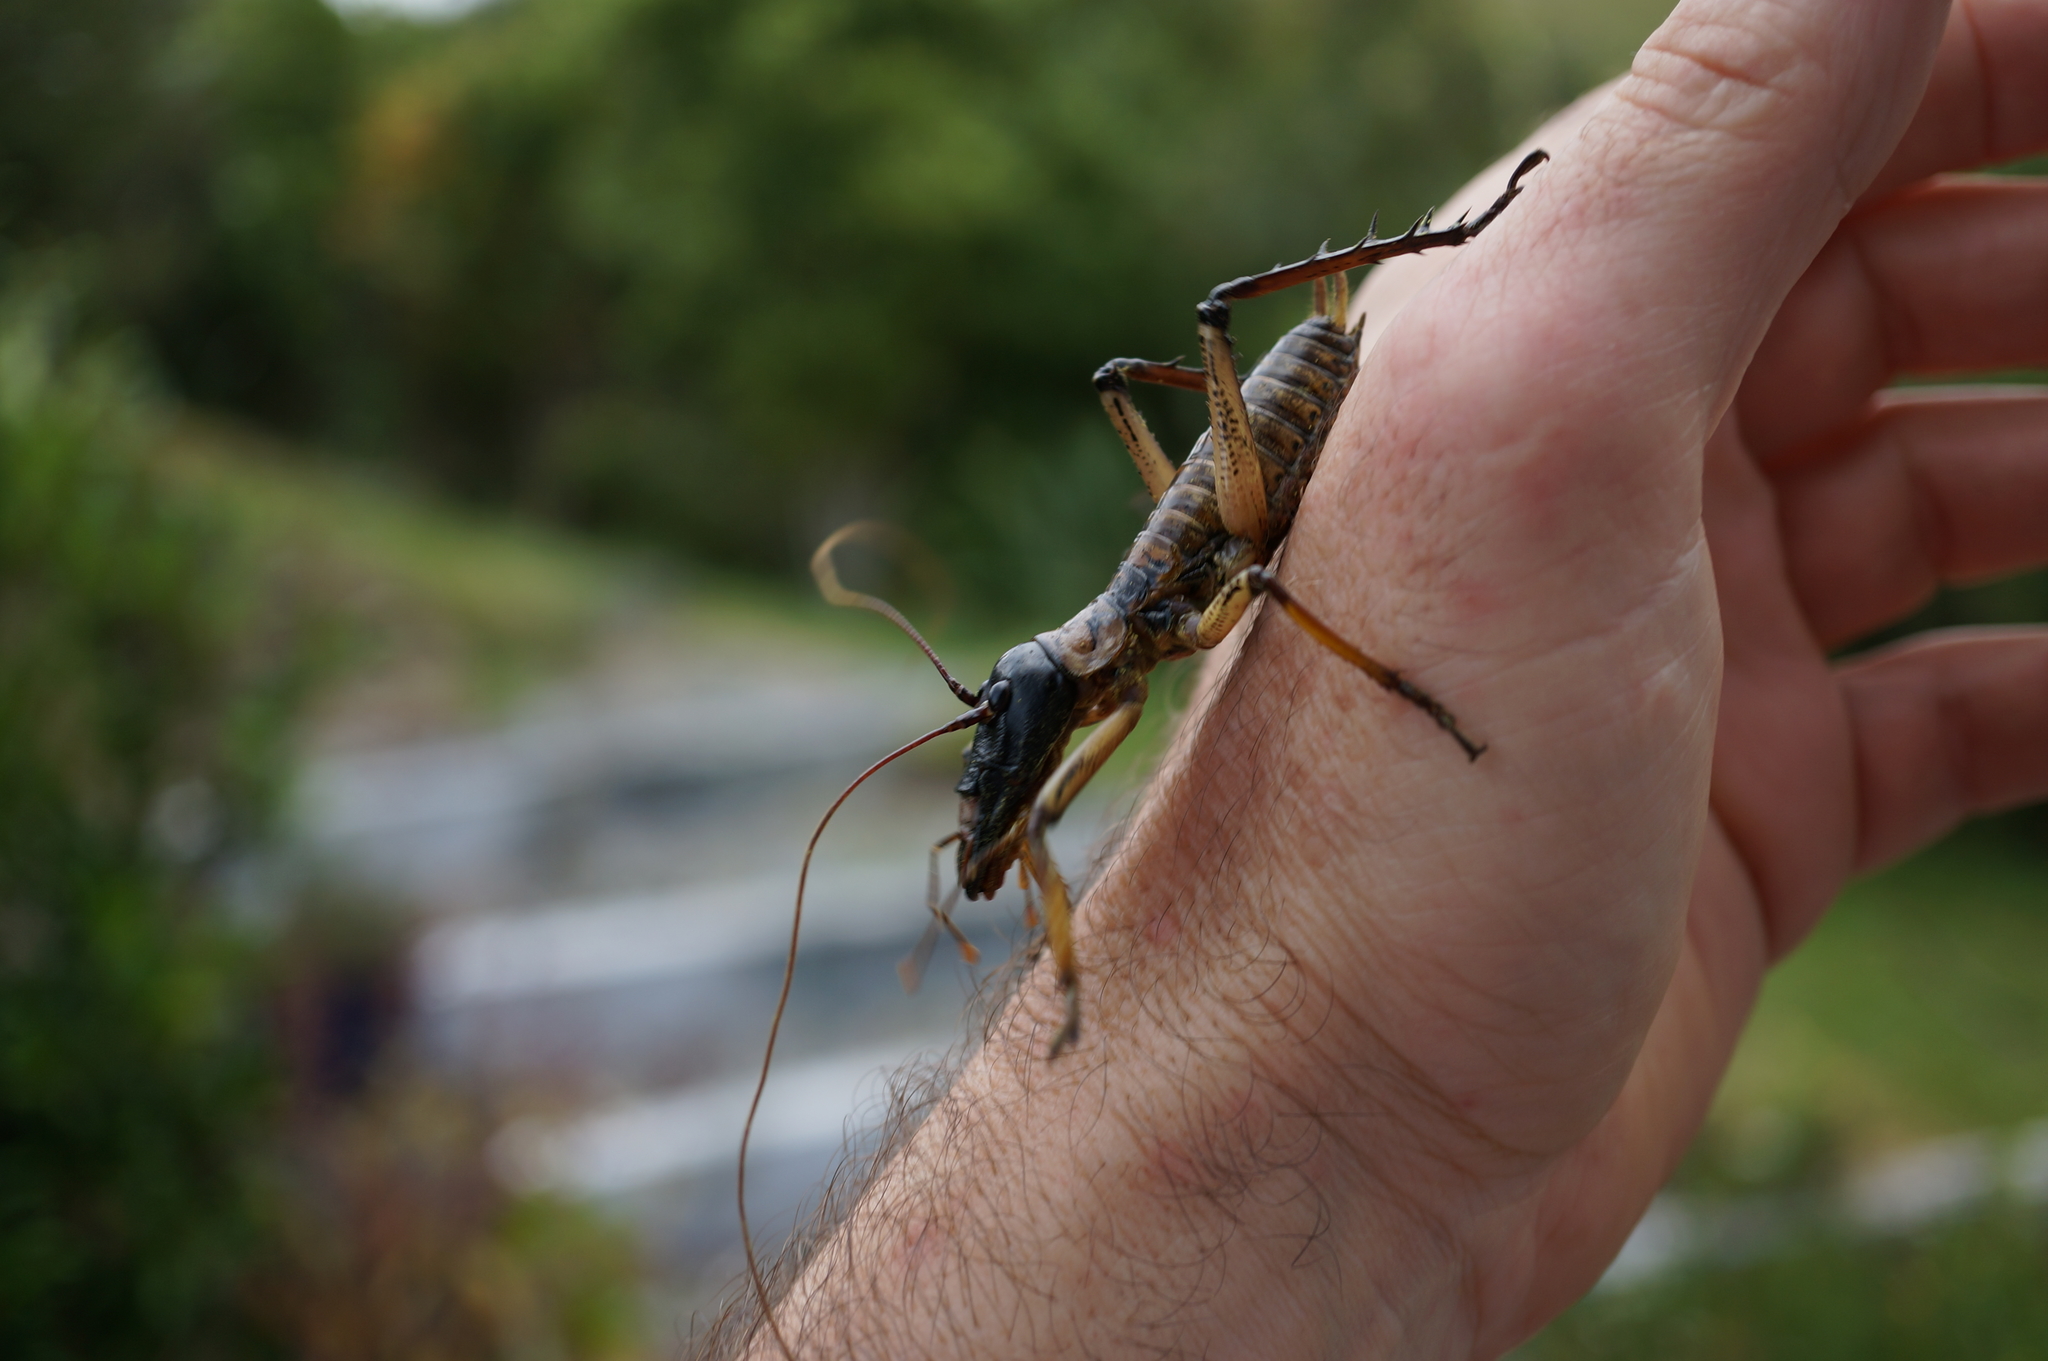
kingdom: Animalia
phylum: Arthropoda
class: Insecta
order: Orthoptera
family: Anostostomatidae
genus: Hemideina
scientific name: Hemideina thoracica
